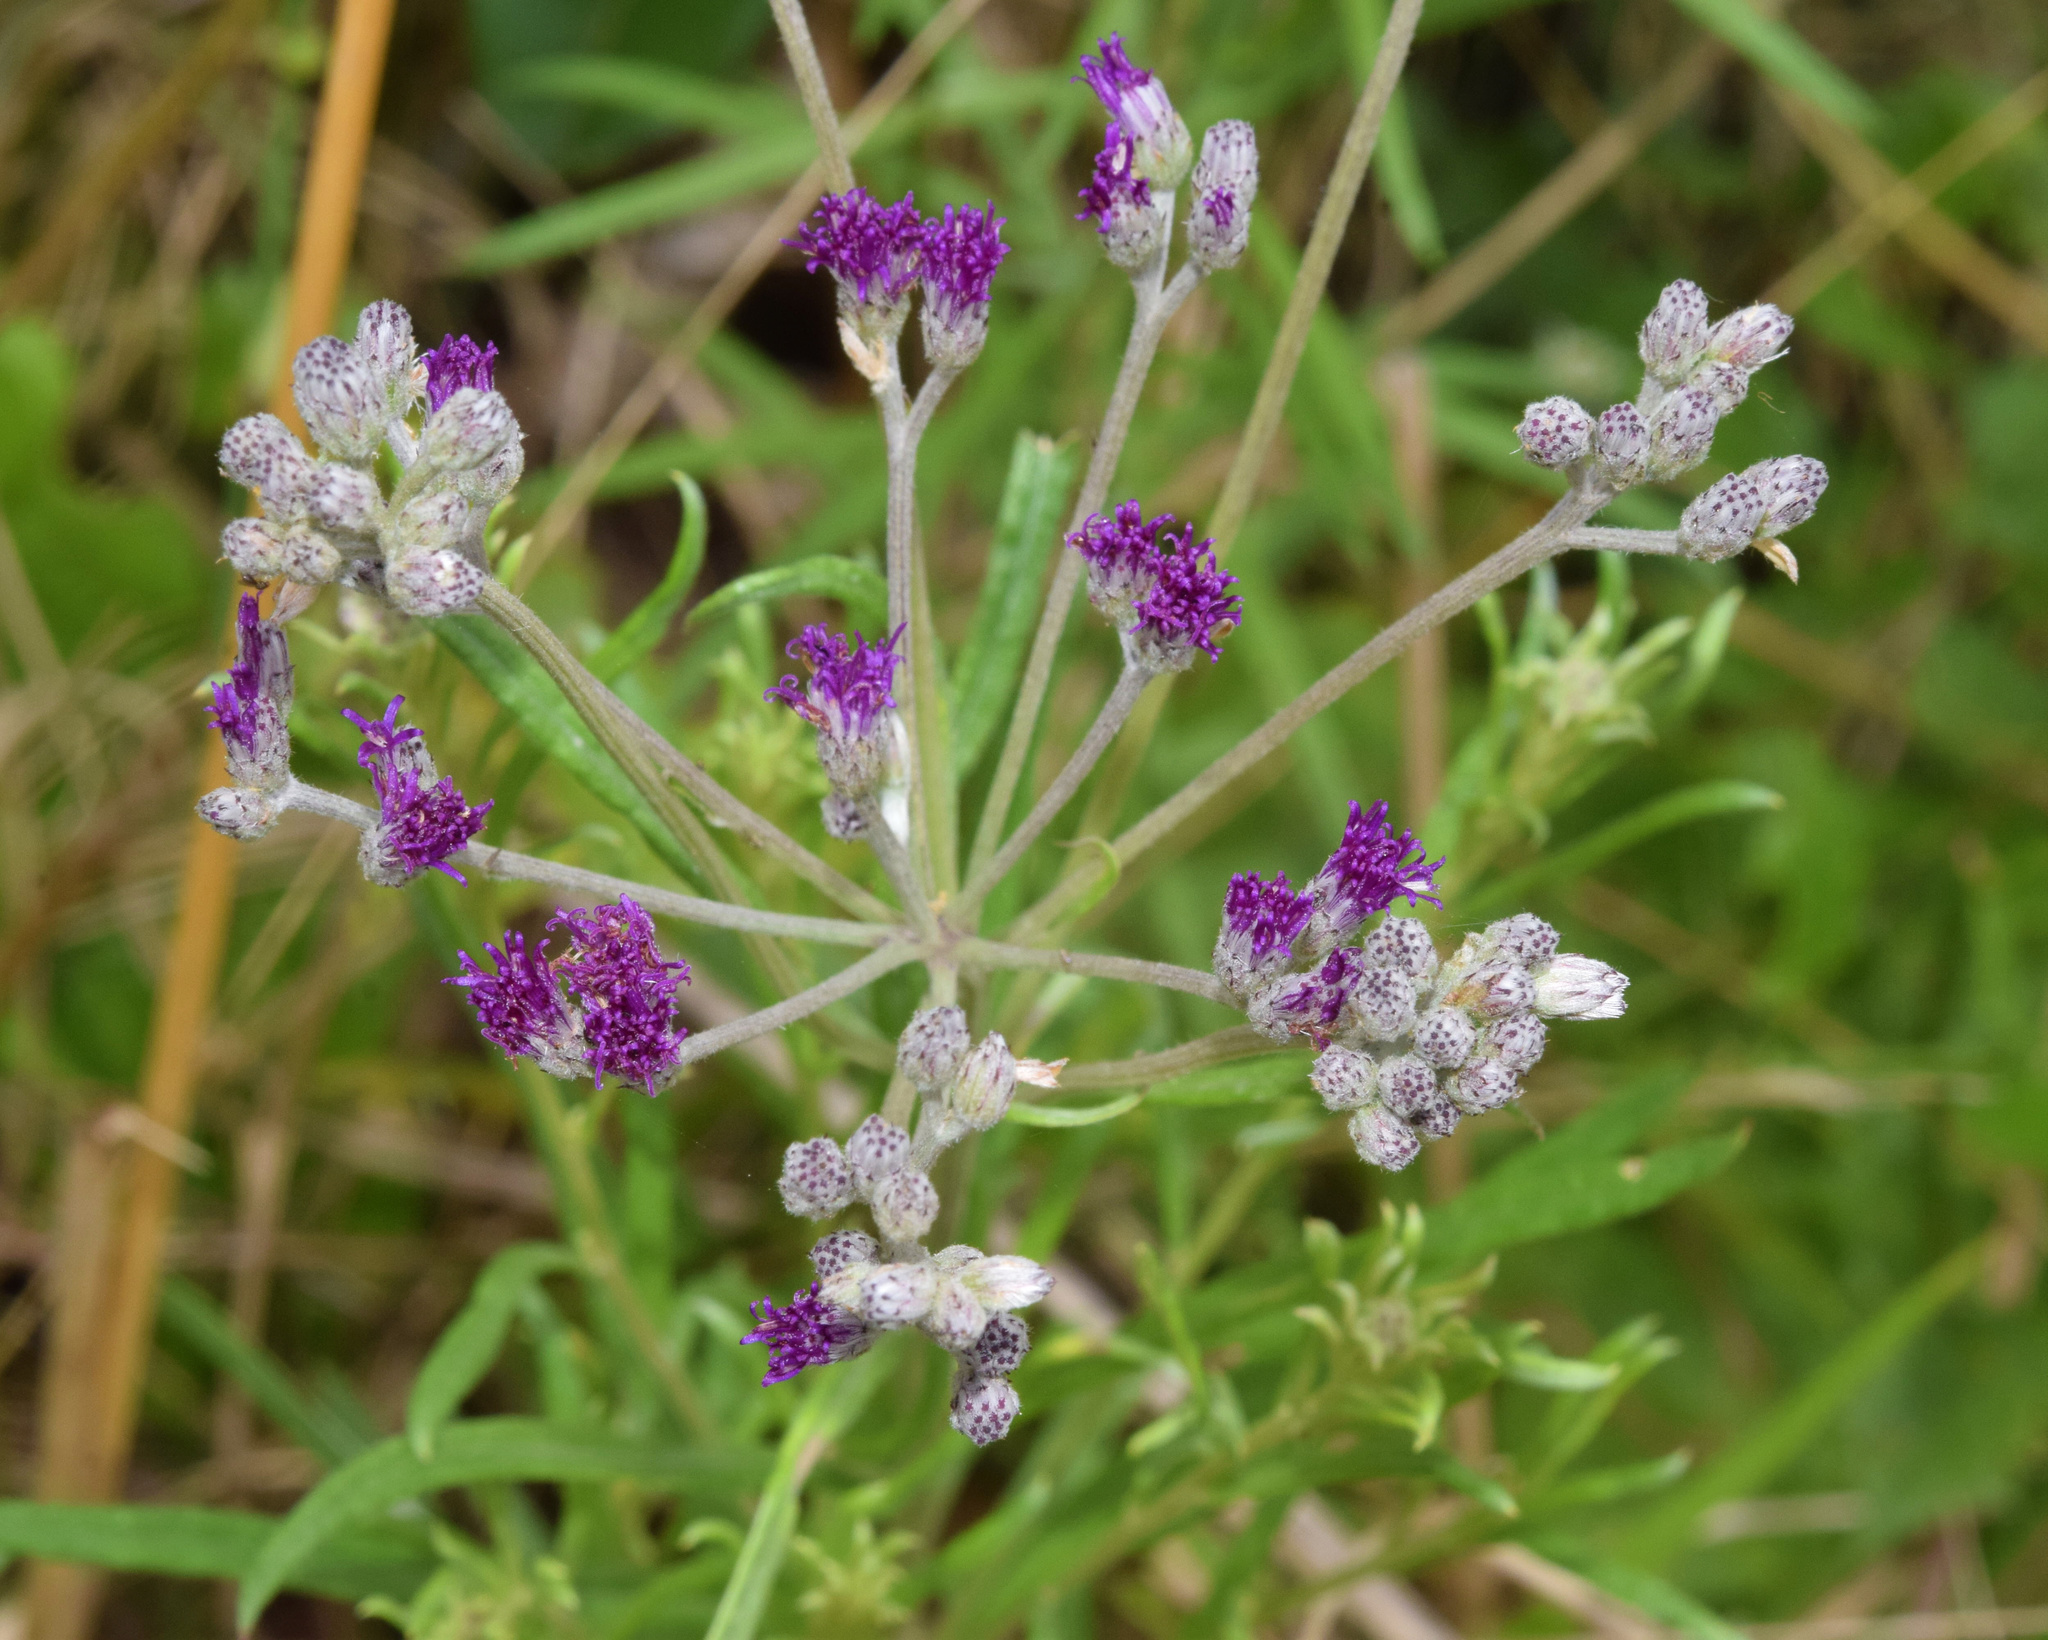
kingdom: Plantae
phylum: Tracheophyta
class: Magnoliopsida
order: Asterales
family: Asteraceae
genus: Hilliardiella
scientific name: Hilliardiella capensis
